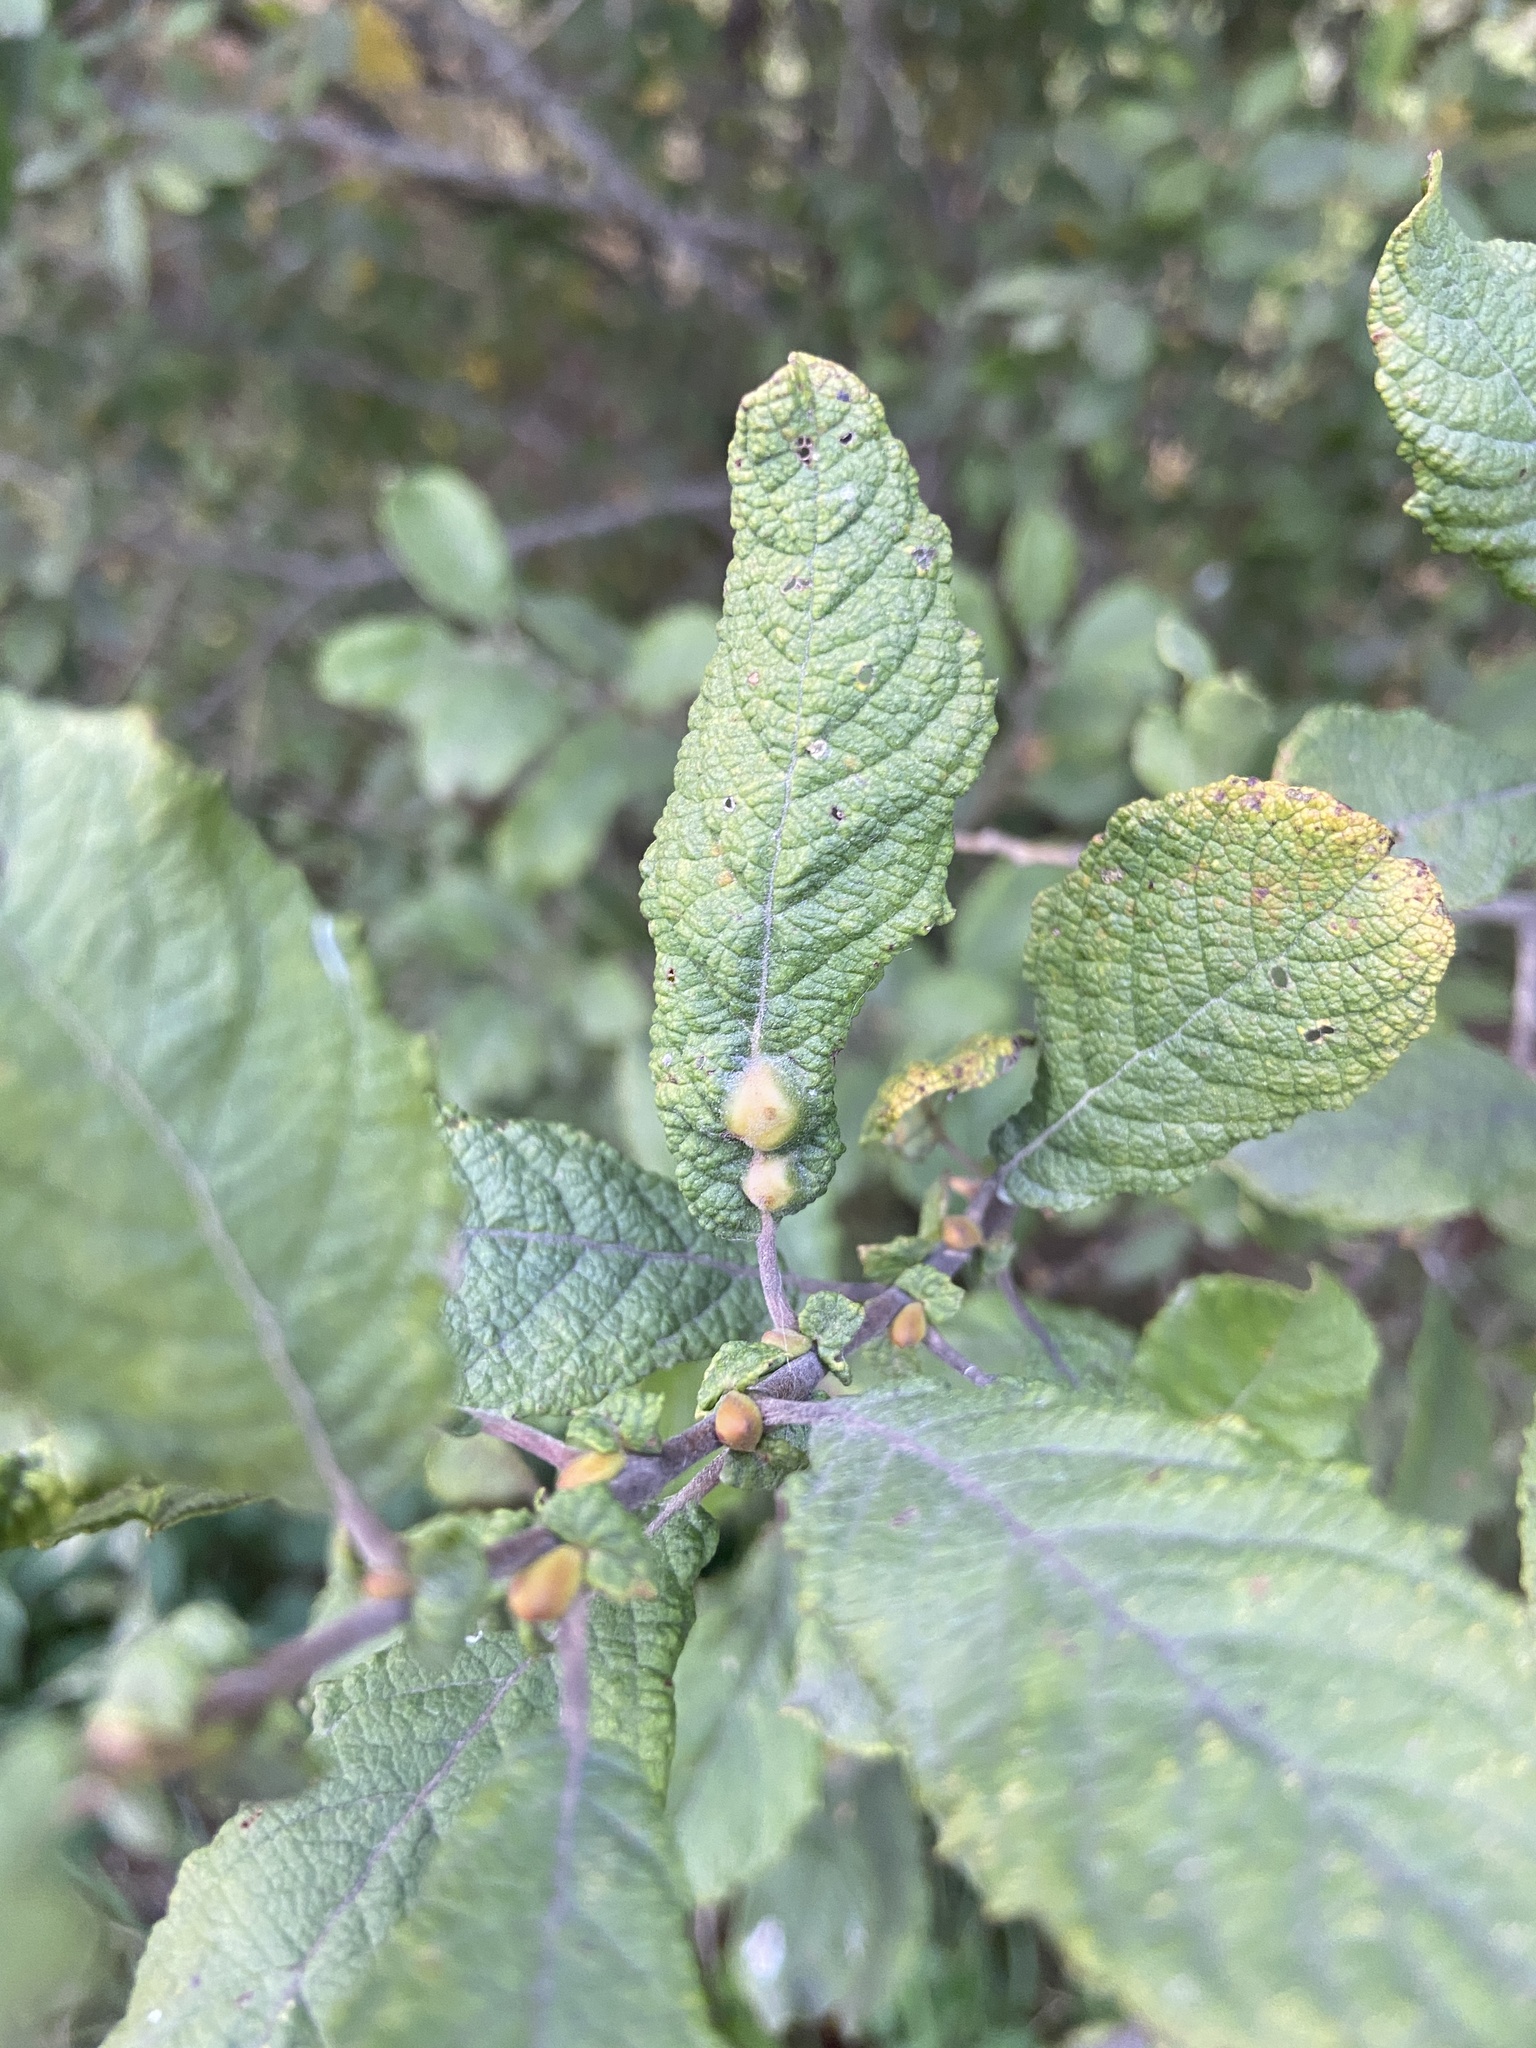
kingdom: Animalia
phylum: Arthropoda
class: Insecta
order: Diptera
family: Cecidomyiidae
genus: Iteomyia
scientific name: Iteomyia major
